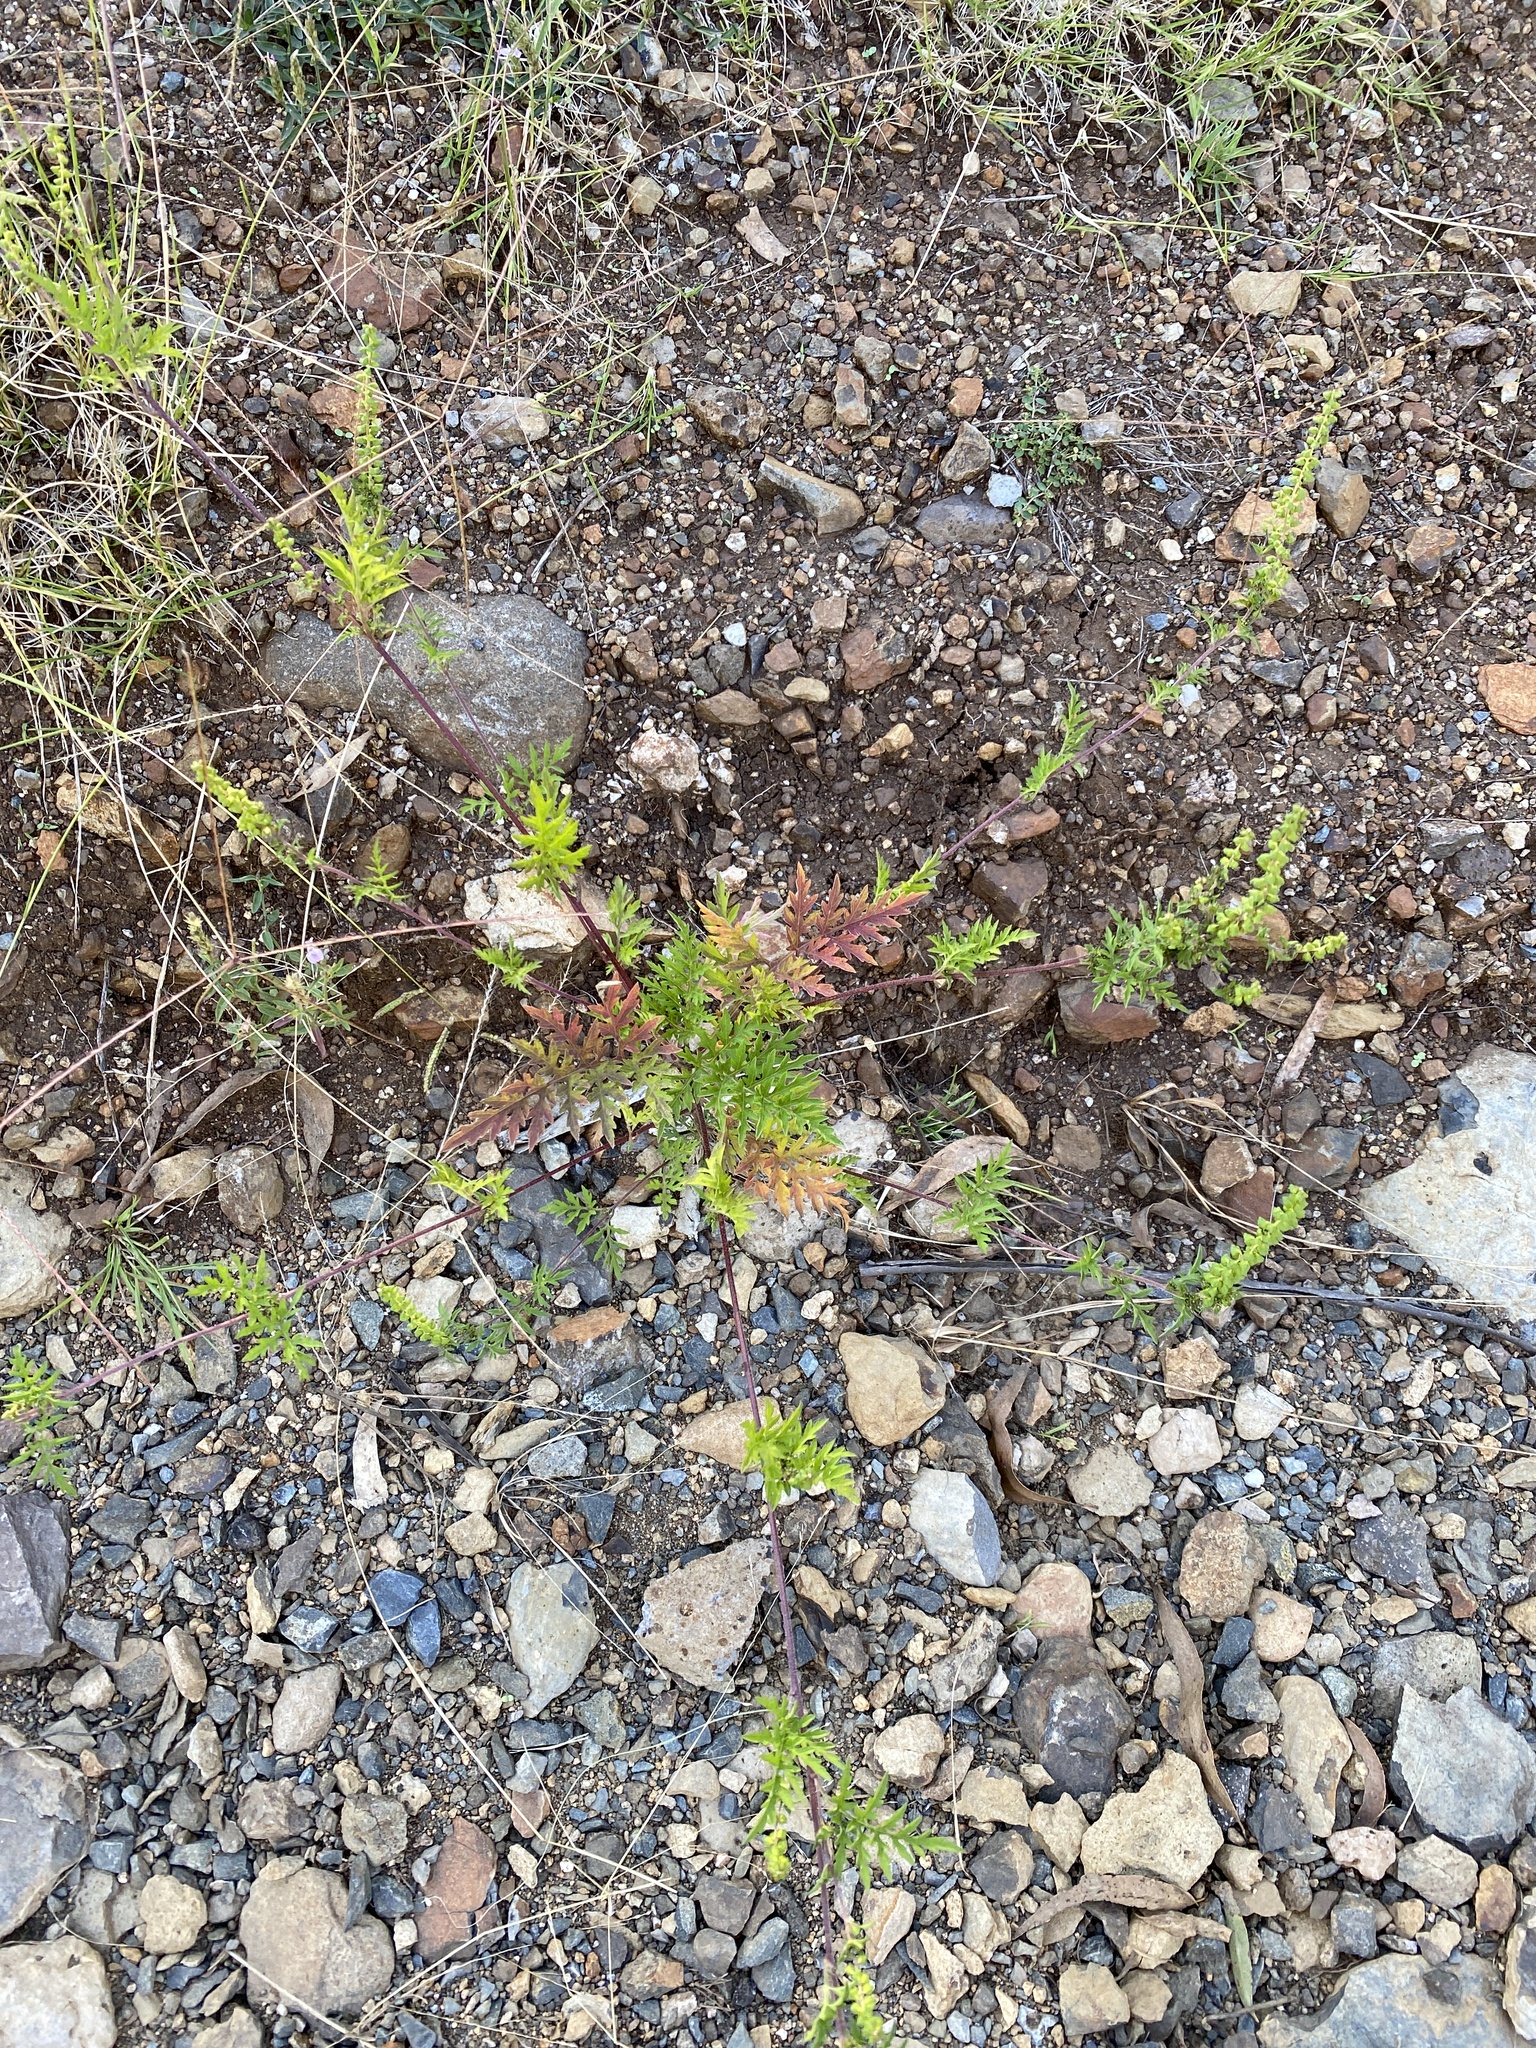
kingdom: Plantae
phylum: Tracheophyta
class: Magnoliopsida
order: Asterales
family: Asteraceae
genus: Ambrosia
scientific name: Ambrosia artemisiifolia
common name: Annual ragweed
